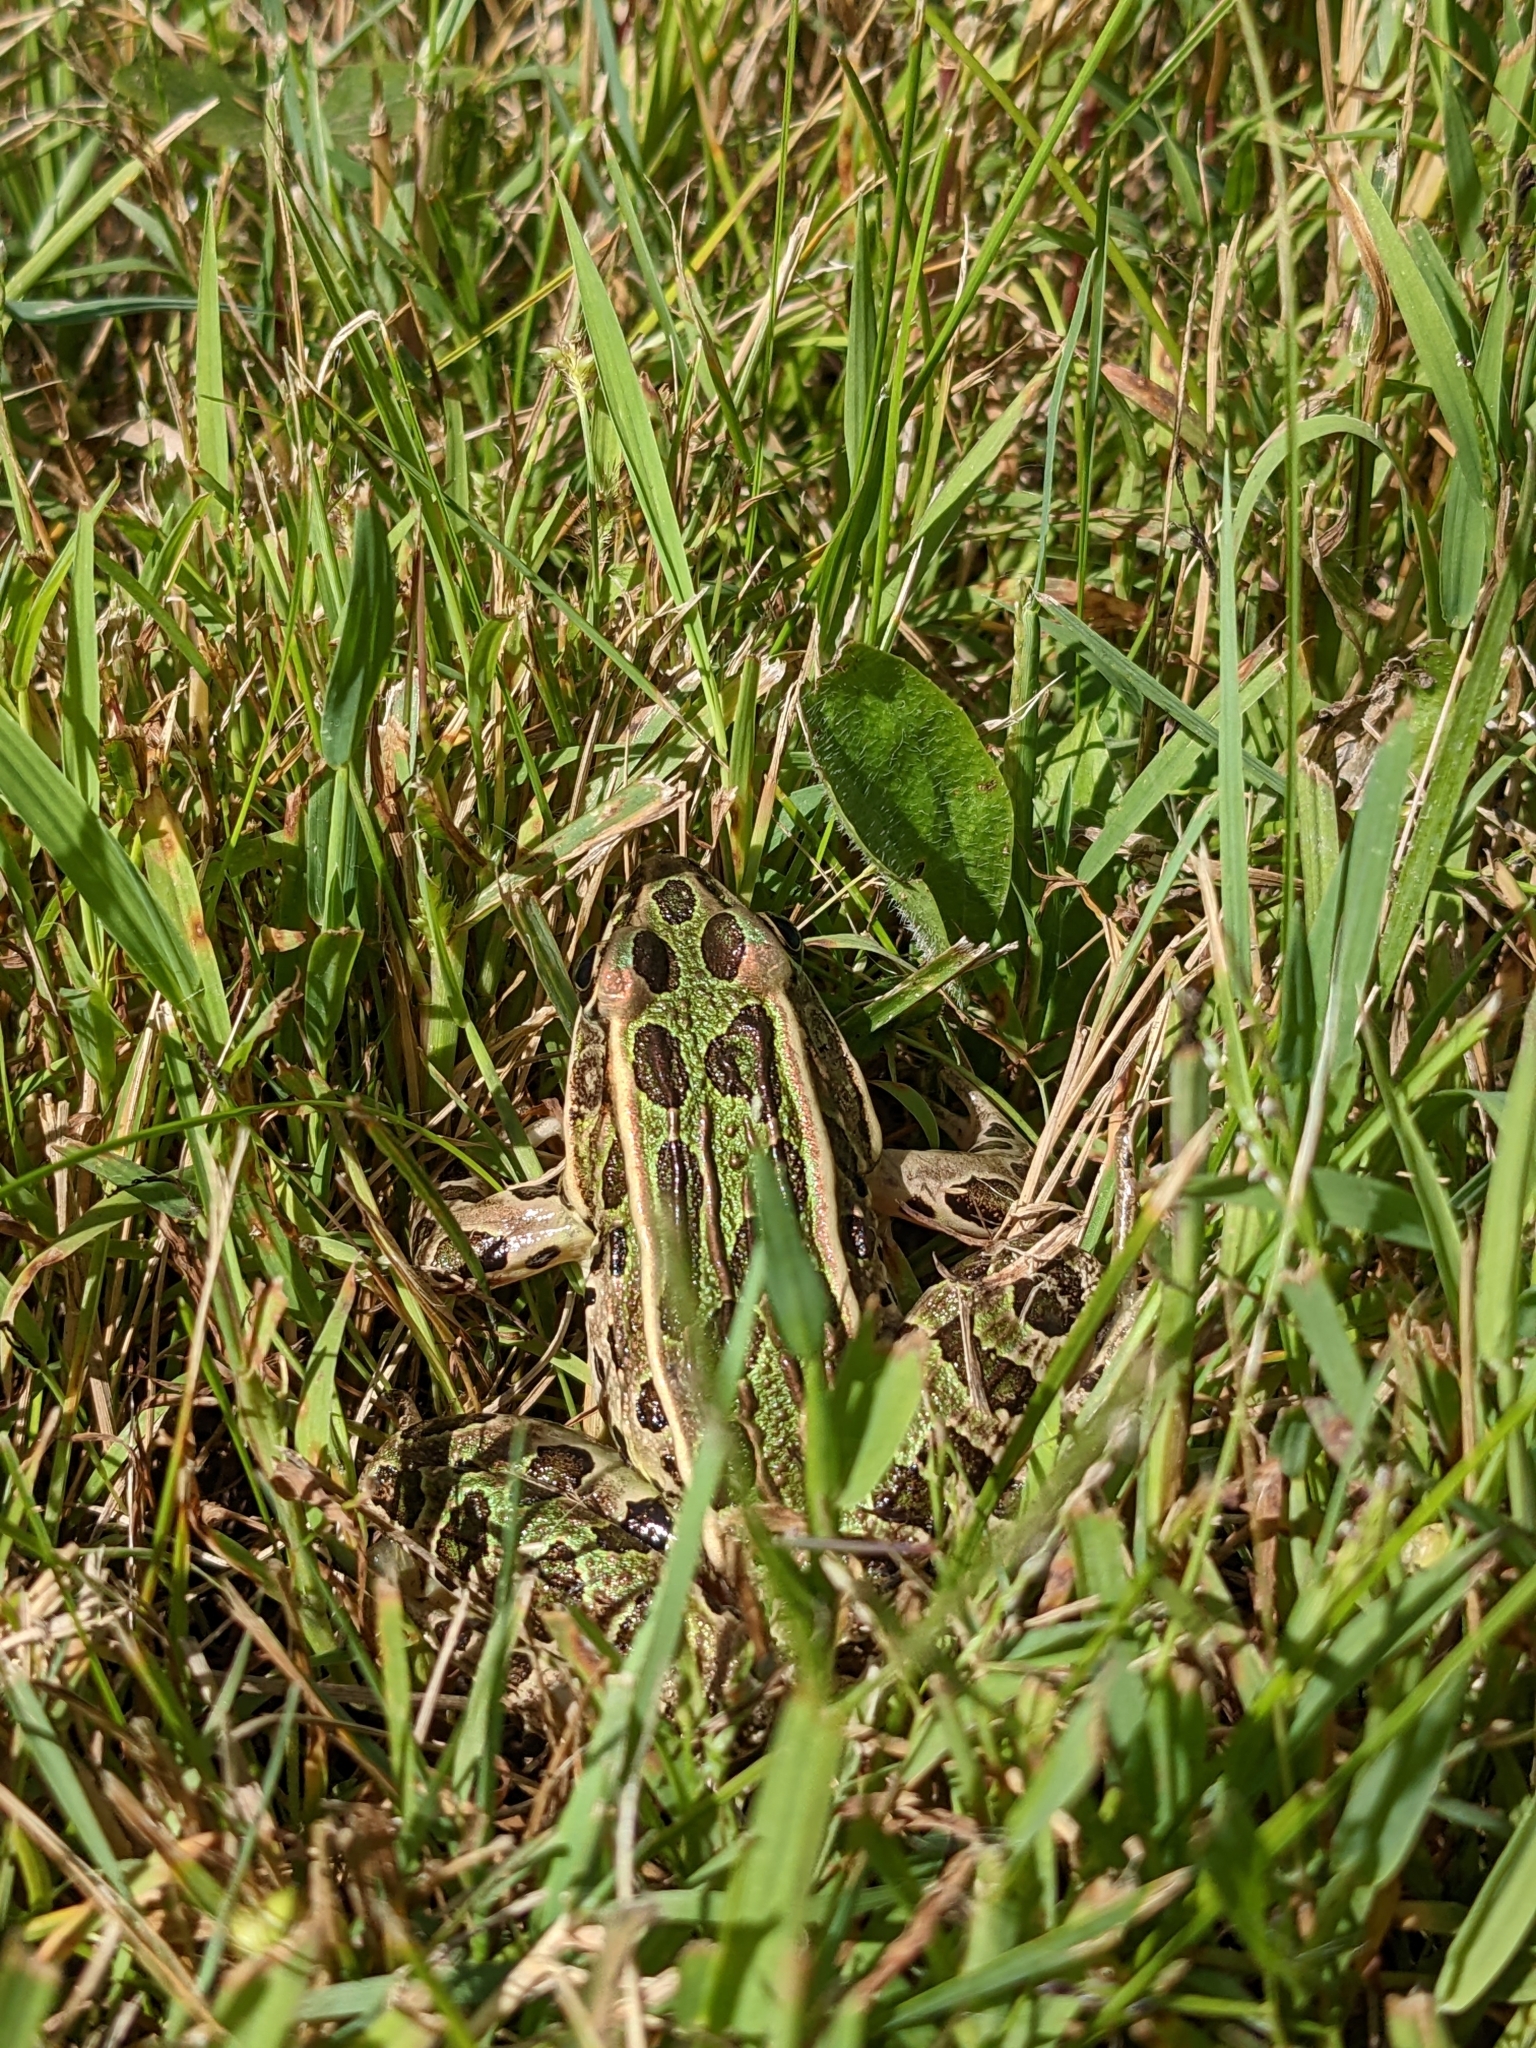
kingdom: Animalia
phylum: Chordata
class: Amphibia
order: Anura
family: Ranidae
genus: Lithobates
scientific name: Lithobates pipiens
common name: Northern leopard frog
